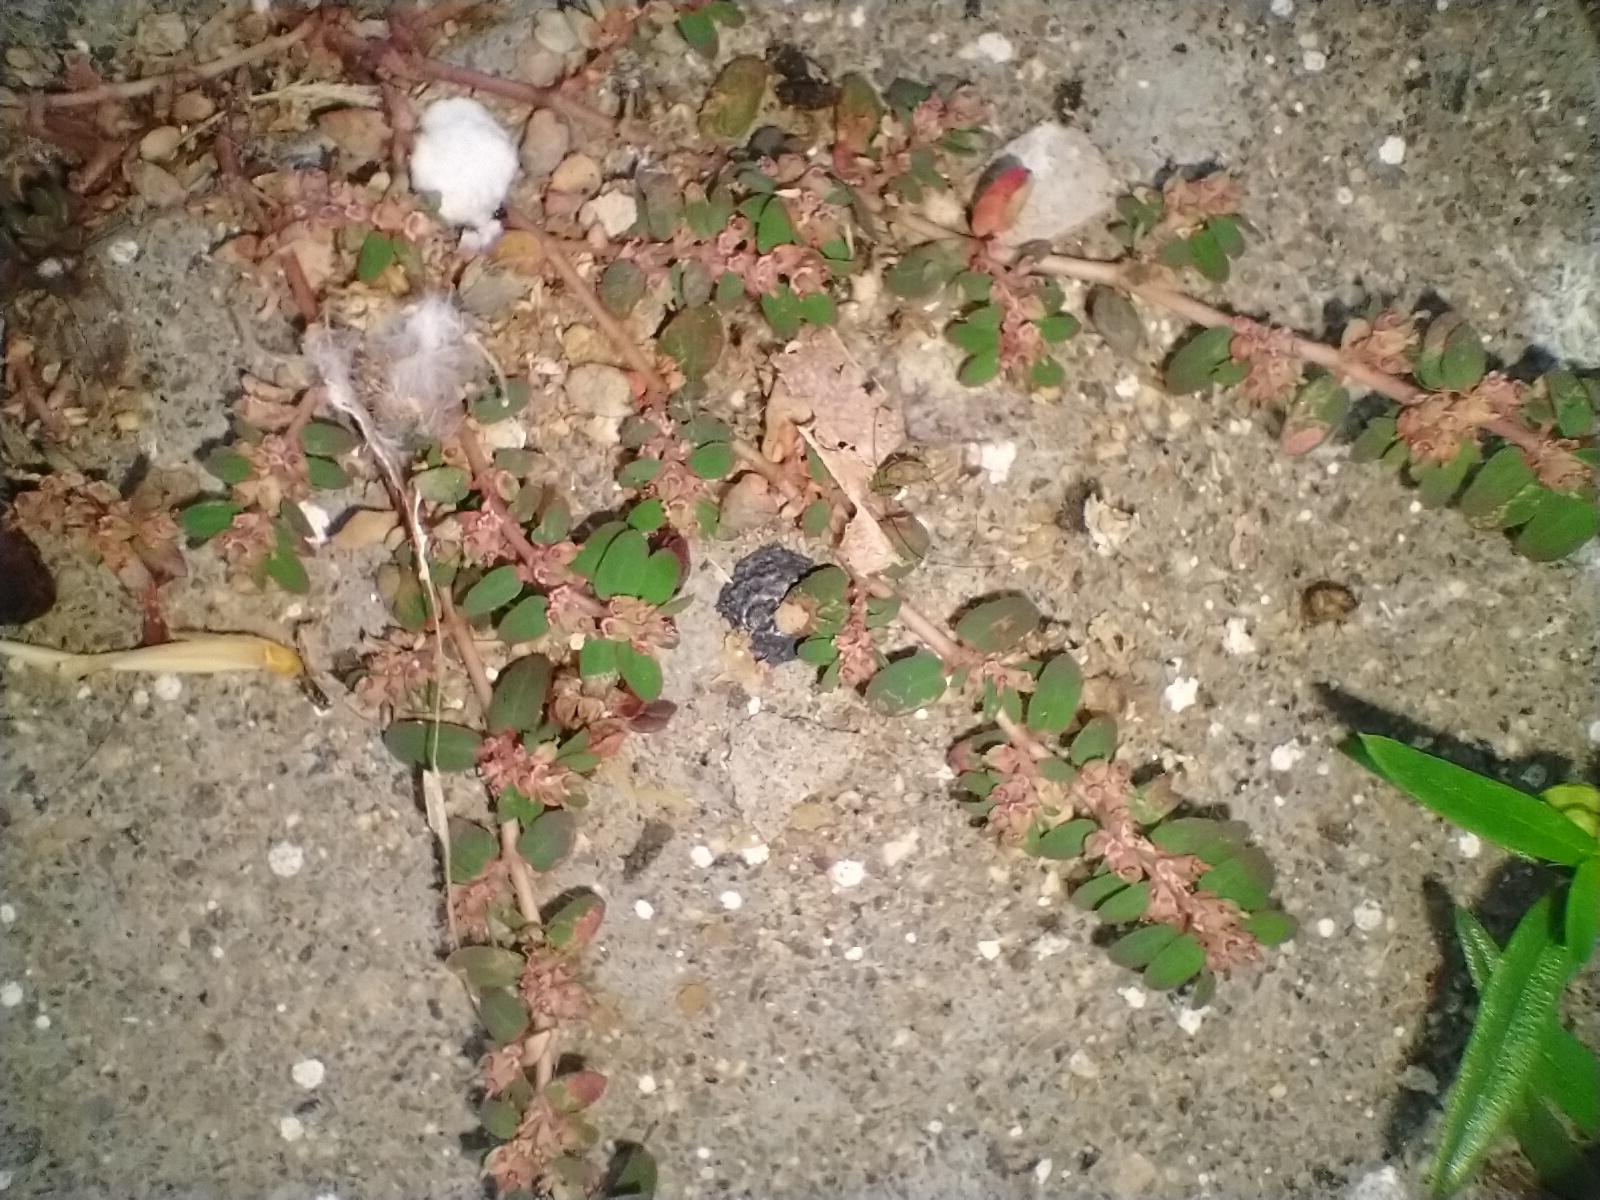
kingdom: Plantae
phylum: Tracheophyta
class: Magnoliopsida
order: Malpighiales
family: Euphorbiaceae
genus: Euphorbia
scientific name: Euphorbia thymifolia
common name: Gulf sandmat
